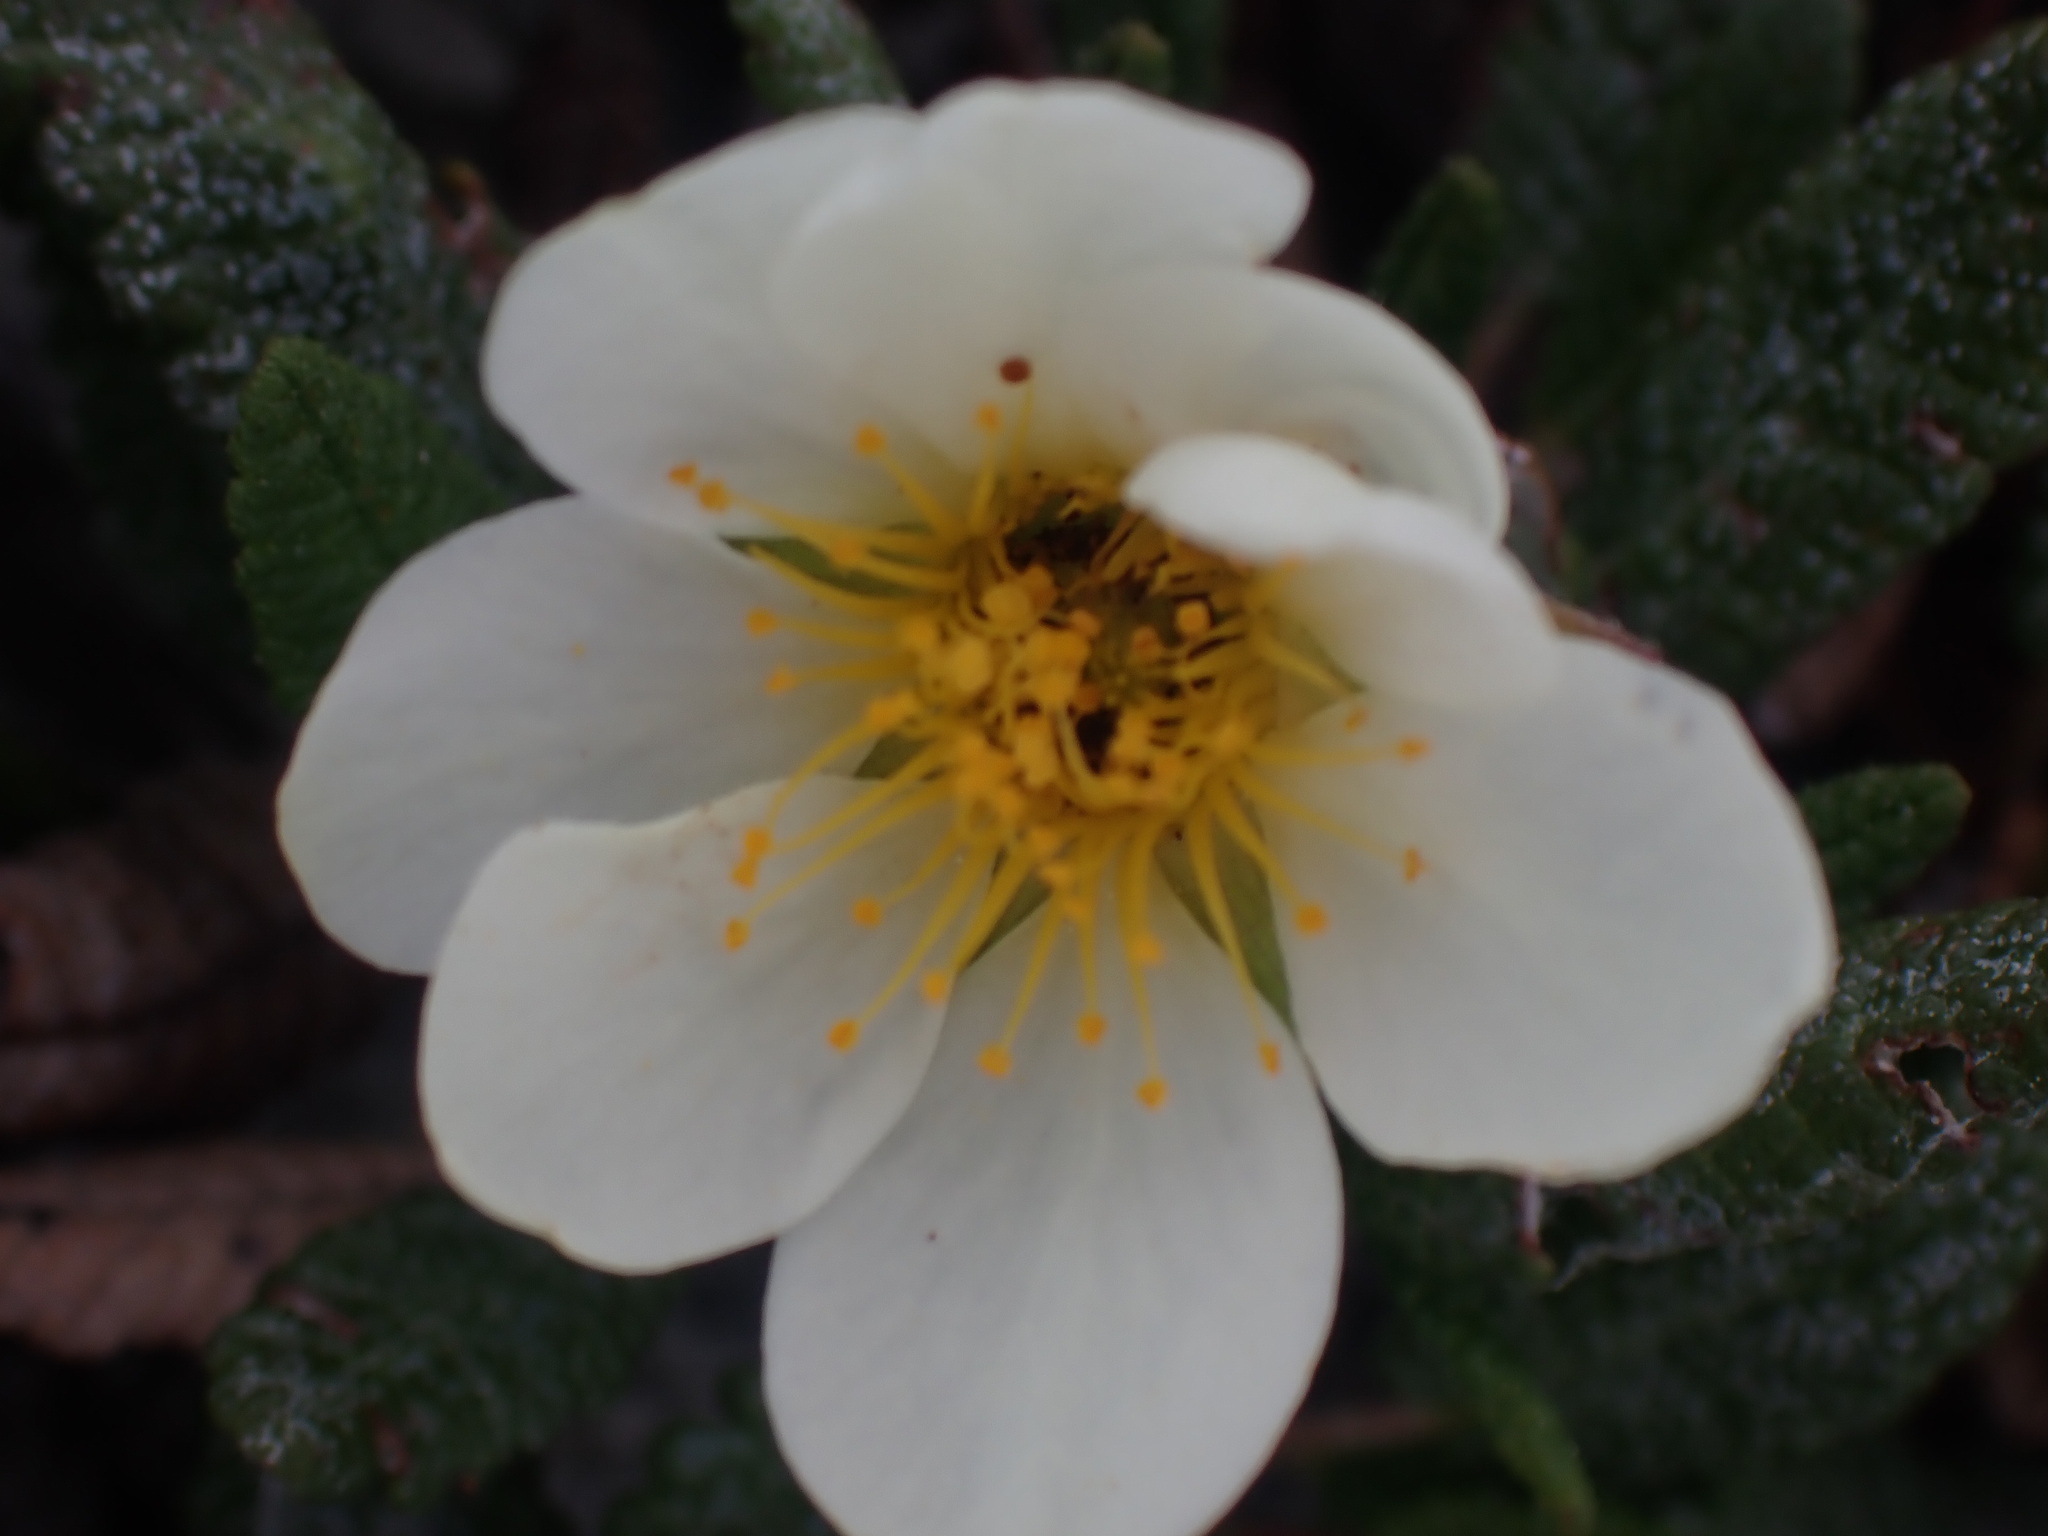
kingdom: Plantae
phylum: Tracheophyta
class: Magnoliopsida
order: Rosales
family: Rosaceae
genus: Dryas
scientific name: Dryas octopetala
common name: Eight-petal mountain-avens
